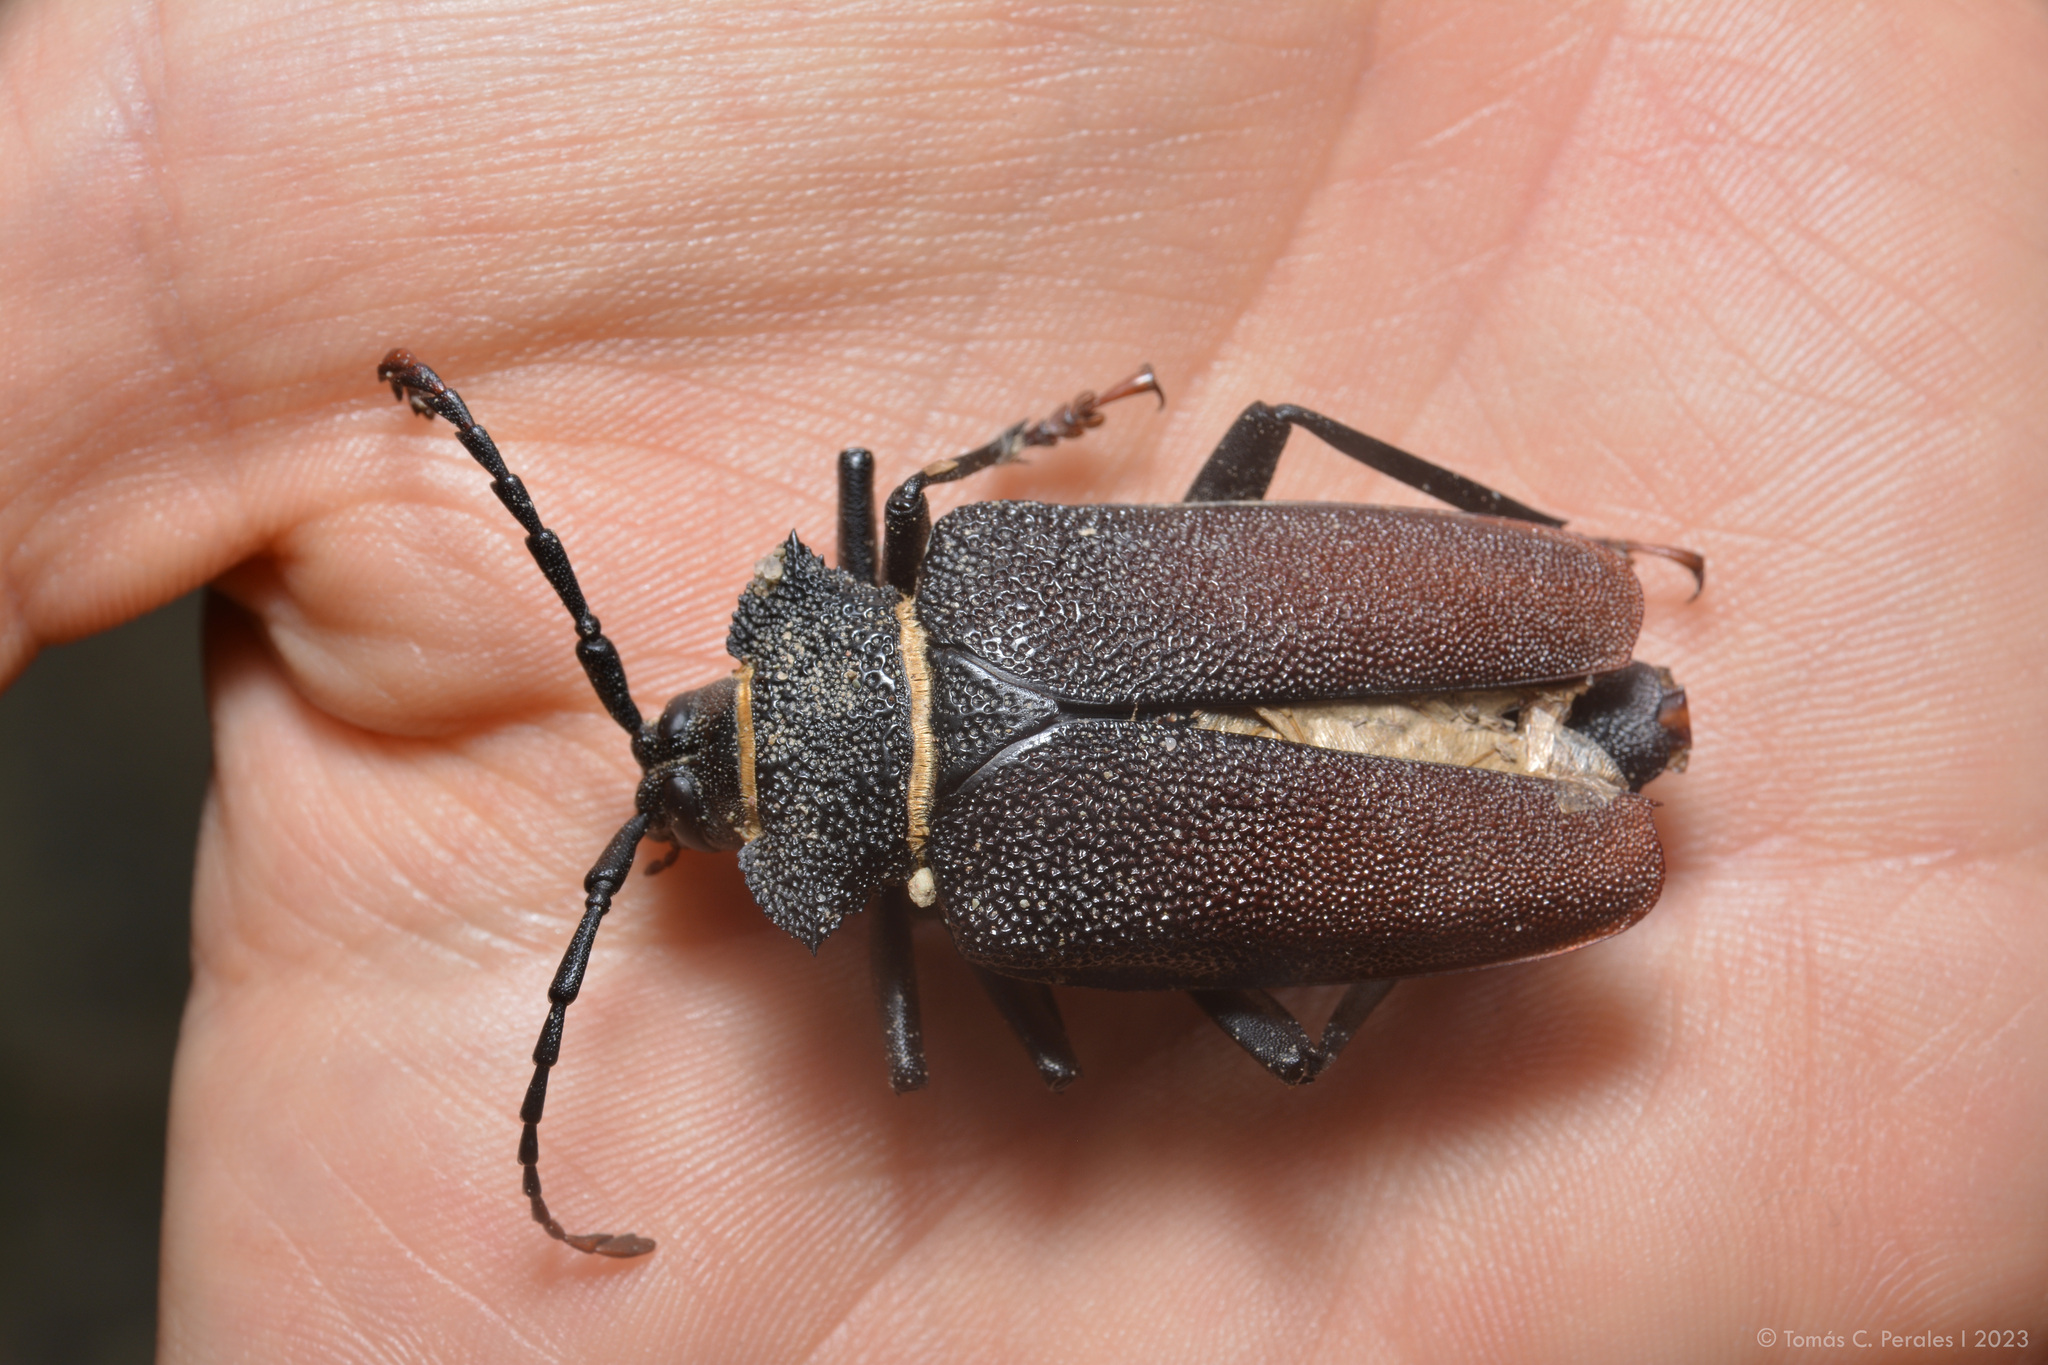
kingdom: Animalia
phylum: Arthropoda
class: Insecta
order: Coleoptera
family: Cerambycidae
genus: Calocomus
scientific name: Calocomus rugosipennis
